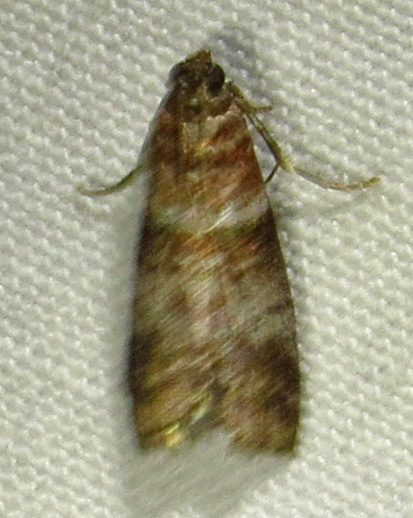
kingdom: Animalia
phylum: Arthropoda
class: Insecta
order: Lepidoptera
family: Pyralidae
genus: Sciota
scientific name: Sciota uvinella
